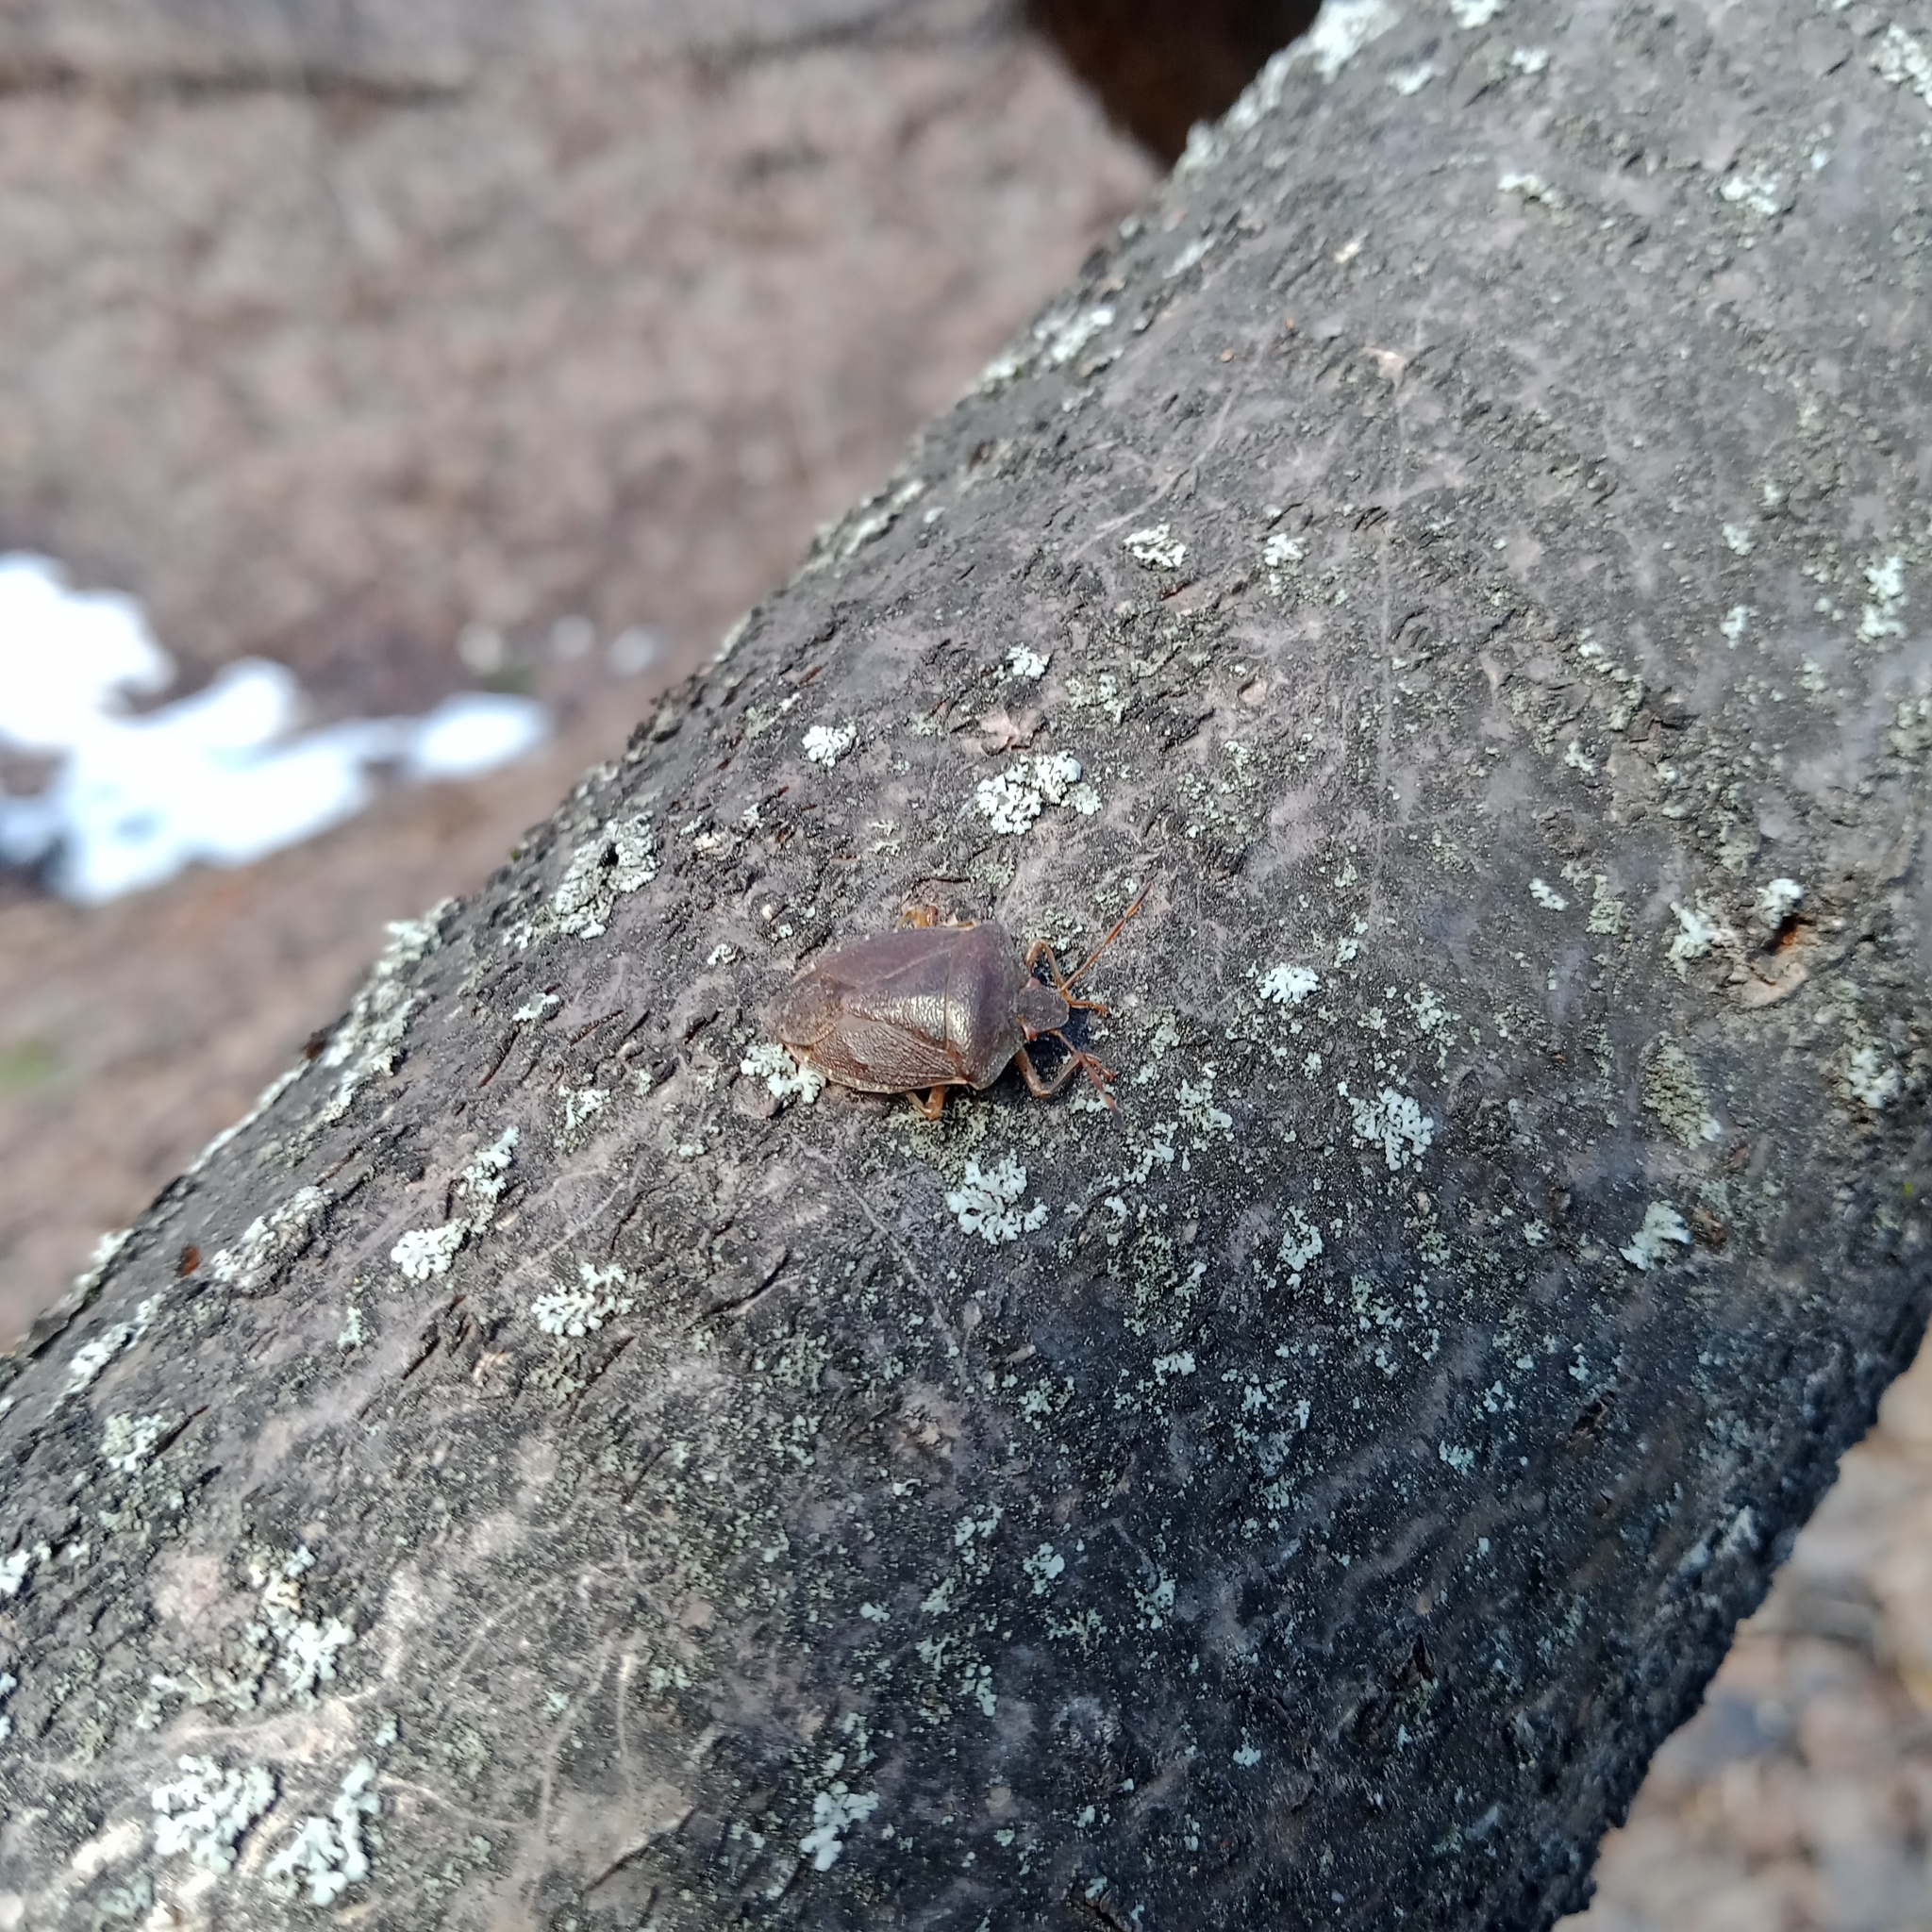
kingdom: Animalia
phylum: Arthropoda
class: Insecta
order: Hemiptera
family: Pentatomidae
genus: Palomena
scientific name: Palomena prasina
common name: Green shieldbug
